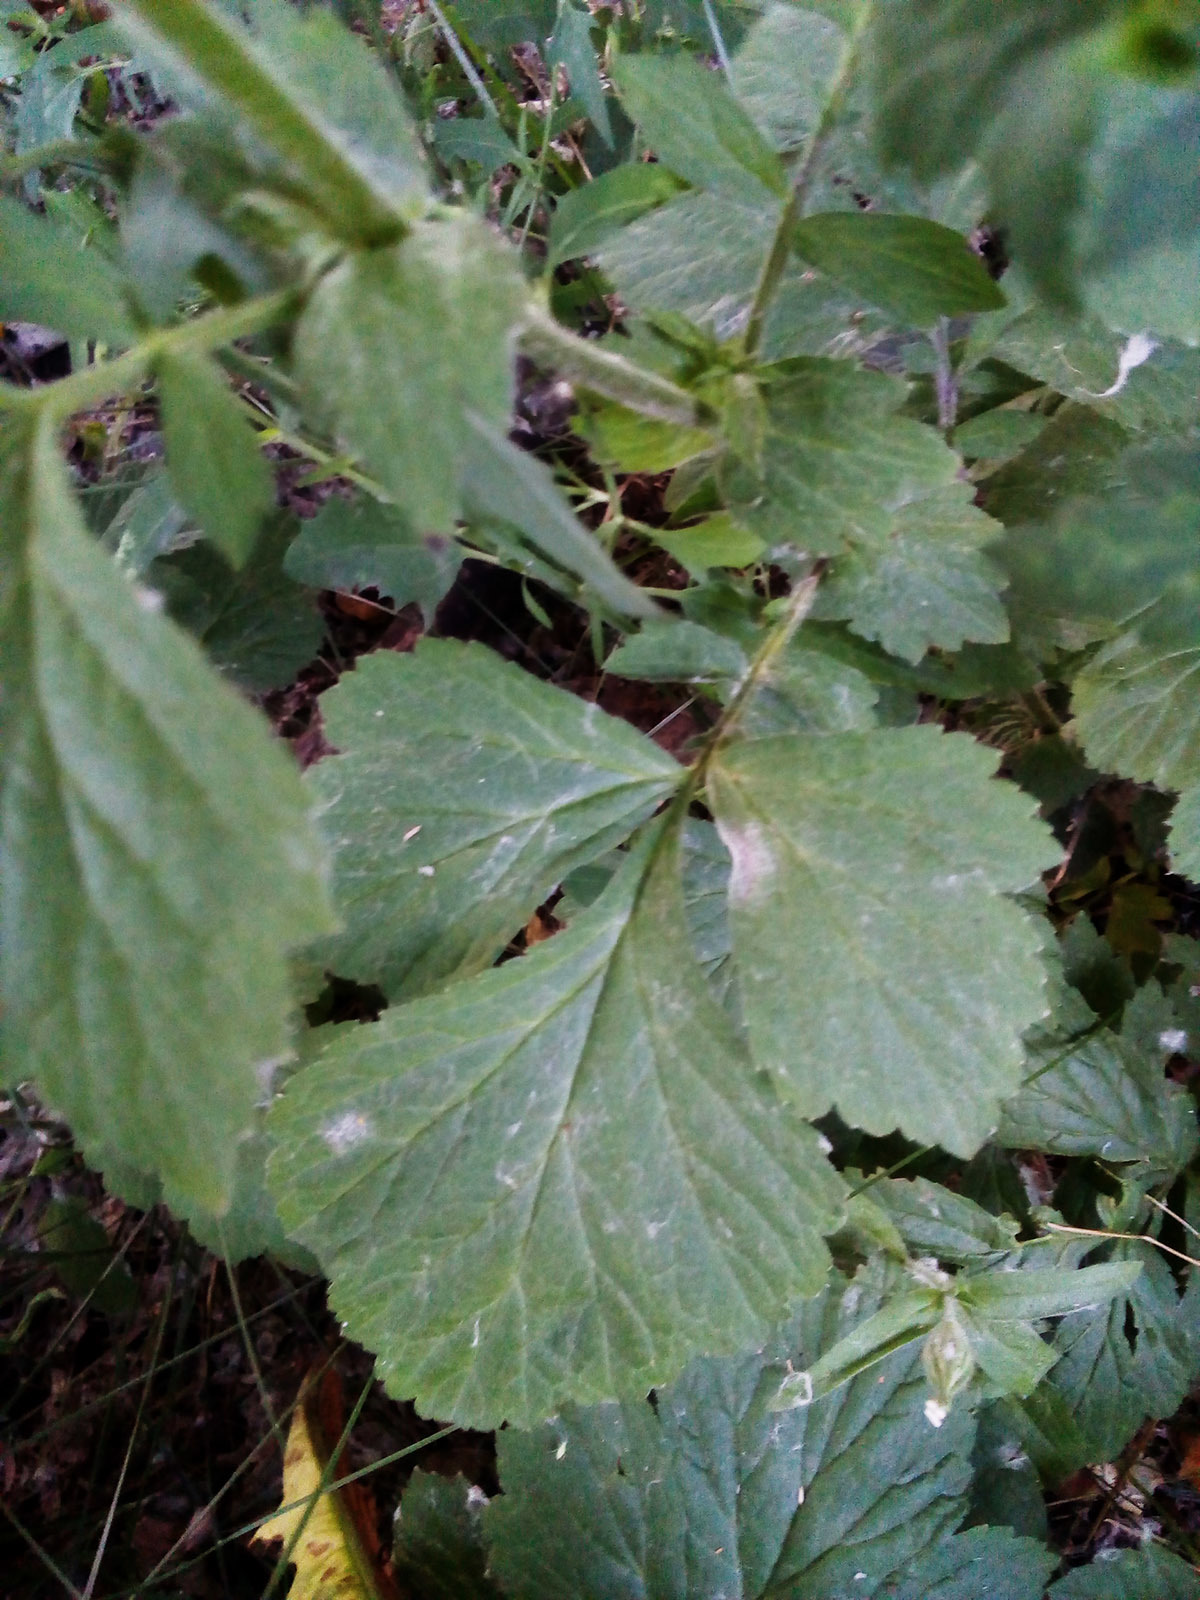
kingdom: Plantae
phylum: Tracheophyta
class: Magnoliopsida
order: Rosales
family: Rosaceae
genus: Geum
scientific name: Geum aleppicum
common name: Yellow avens
